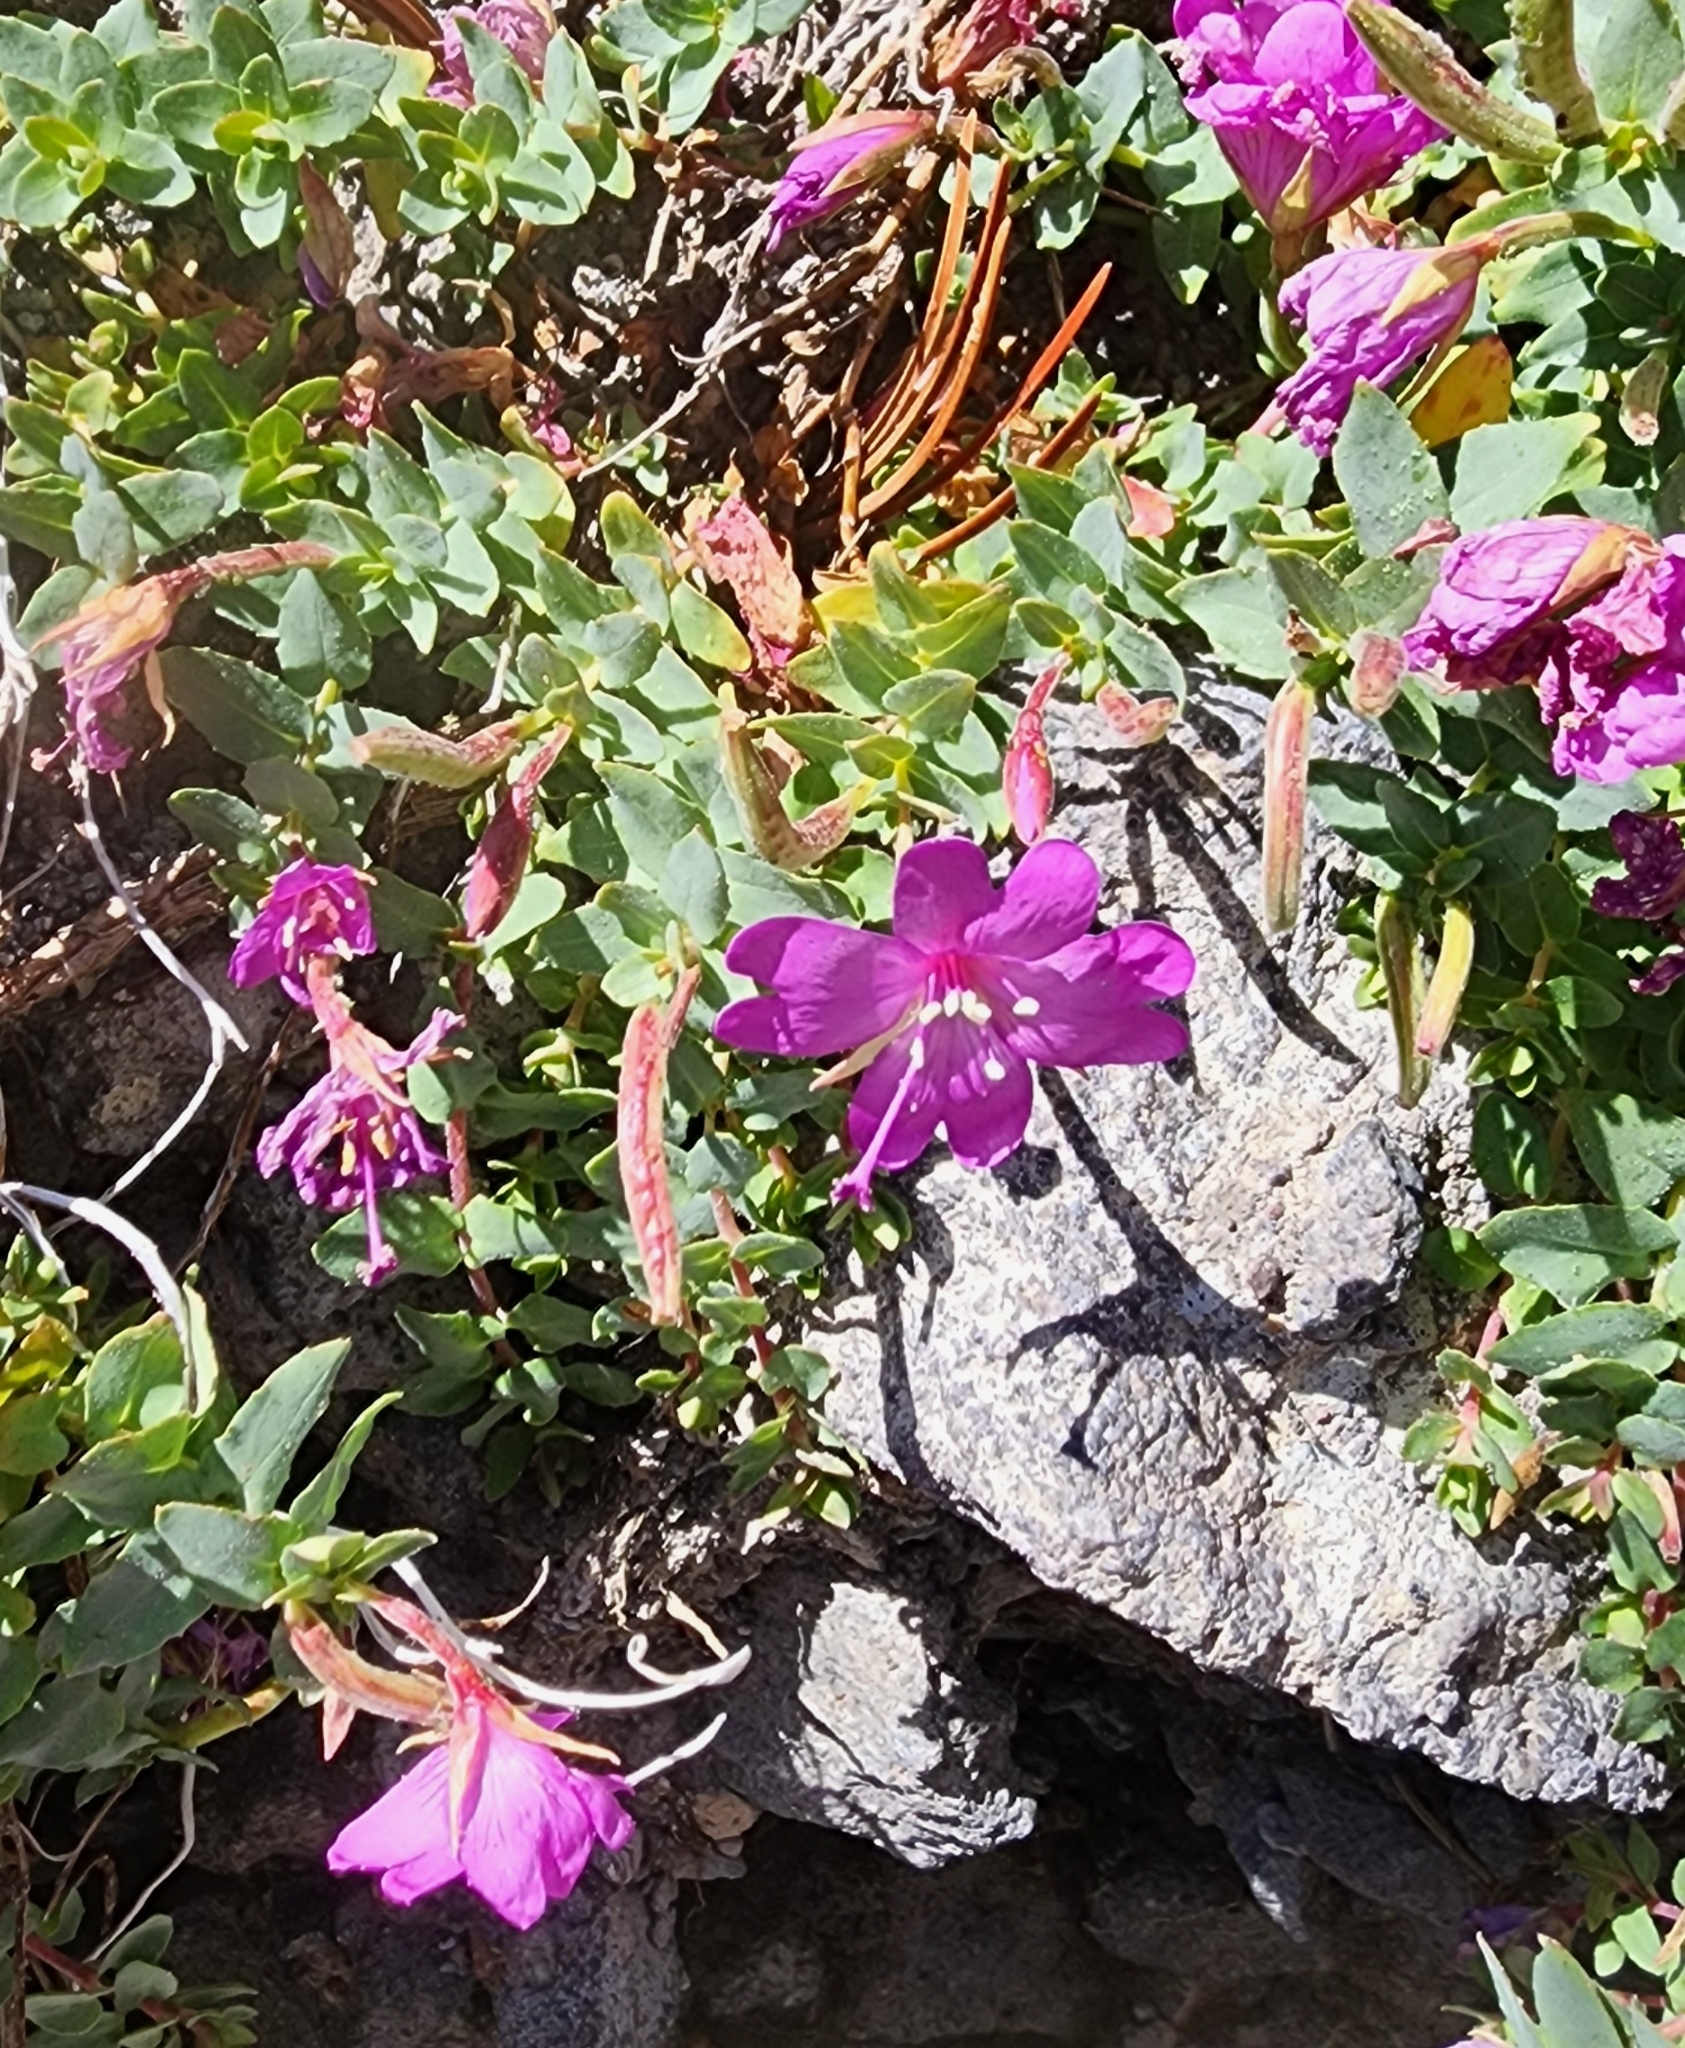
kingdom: Plantae
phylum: Tracheophyta
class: Magnoliopsida
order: Myrtales
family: Onagraceae
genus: Epilobium
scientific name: Epilobium obcordatum
